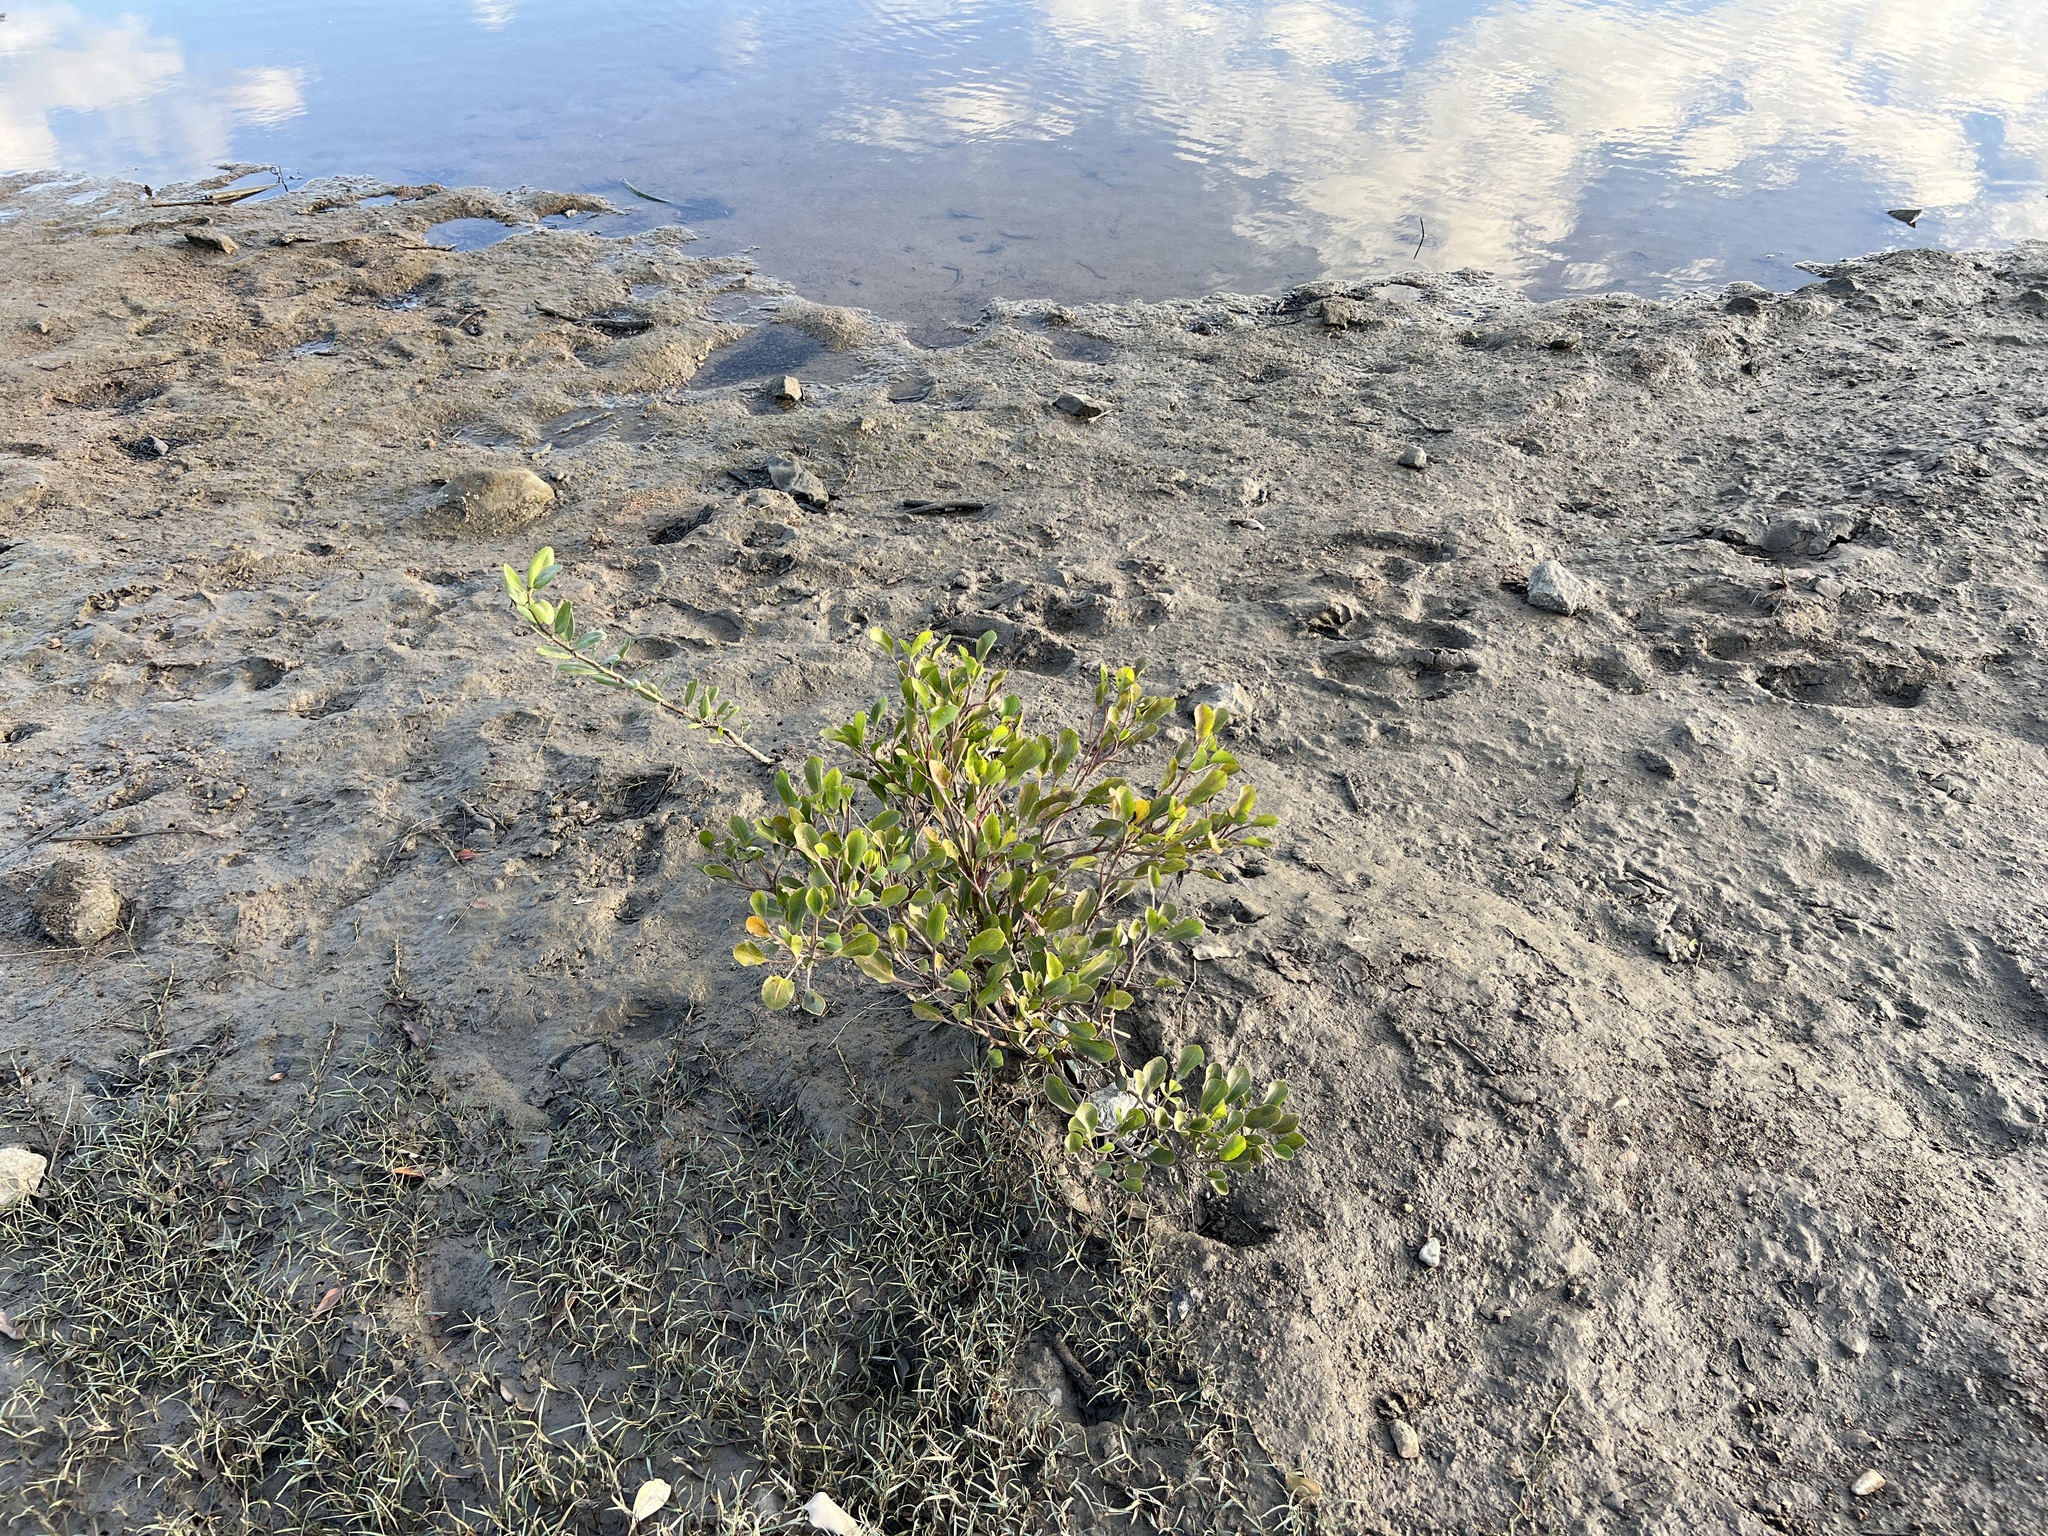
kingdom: Plantae
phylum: Tracheophyta
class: Magnoliopsida
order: Caryophyllales
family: Plumbaginaceae
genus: Aegialitis
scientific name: Aegialitis annulata
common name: Club mangrove
